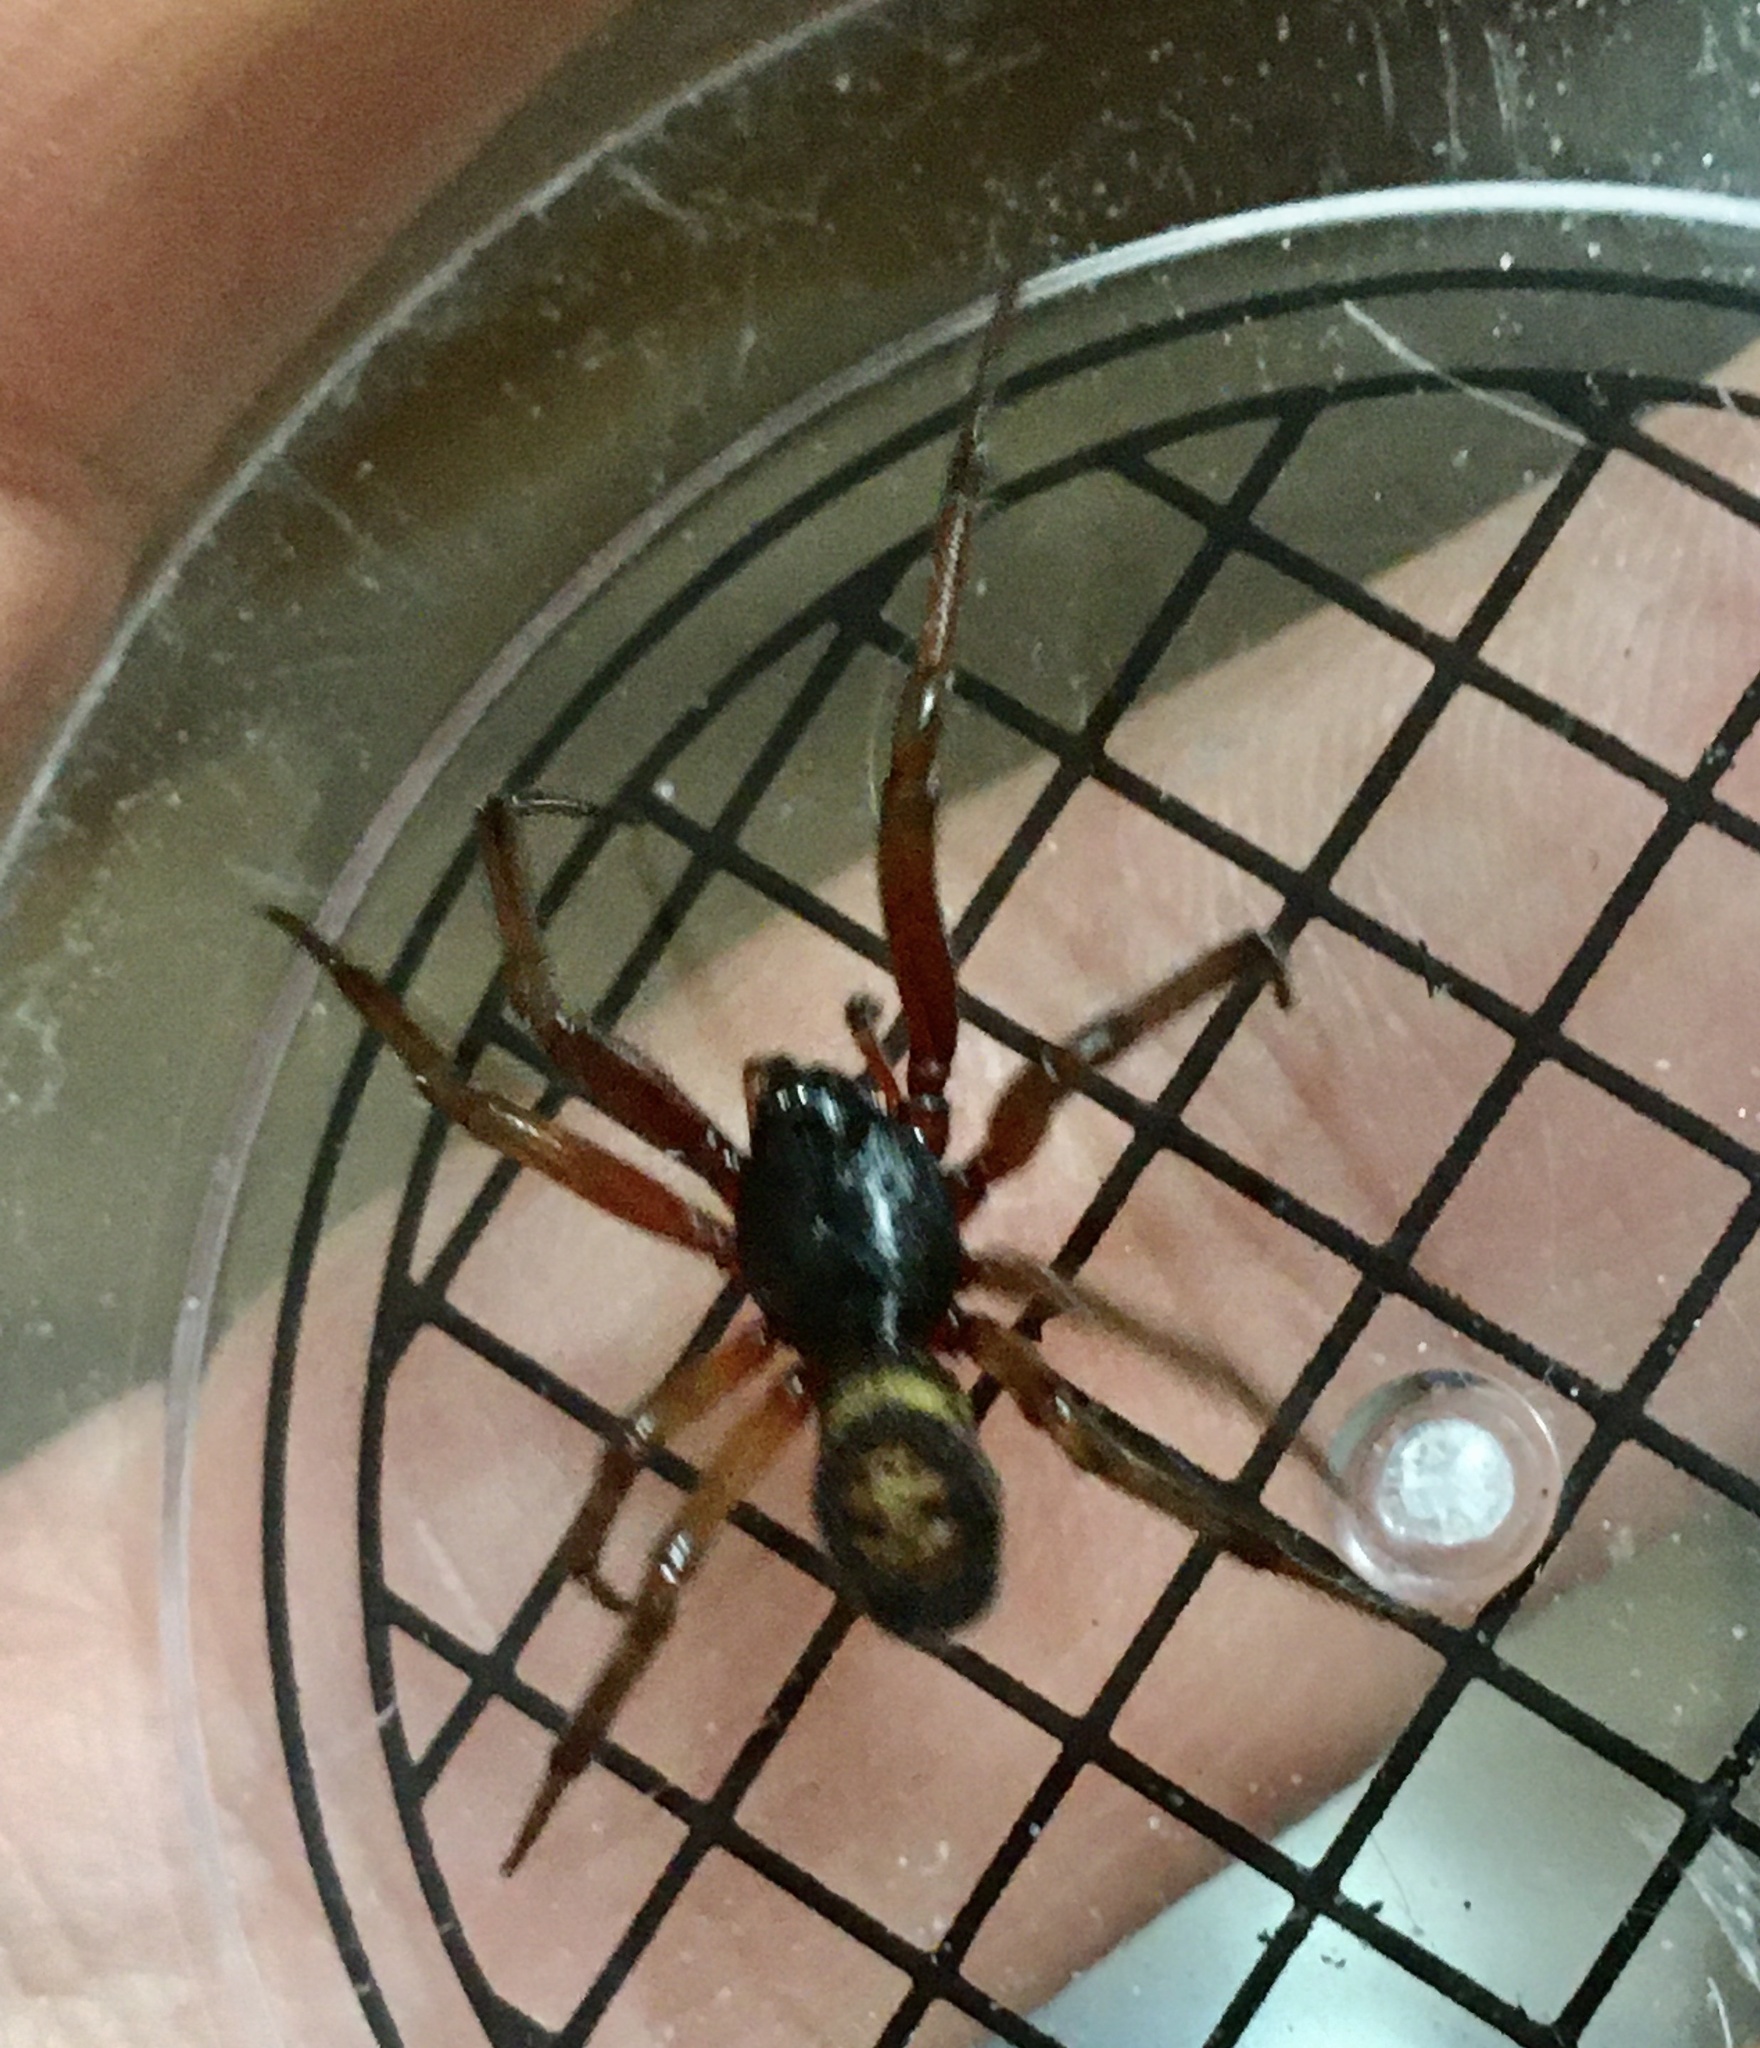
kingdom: Animalia
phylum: Arthropoda
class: Arachnida
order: Araneae
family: Theridiidae
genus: Steatoda
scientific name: Steatoda nobilis
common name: Cobweb weaver
